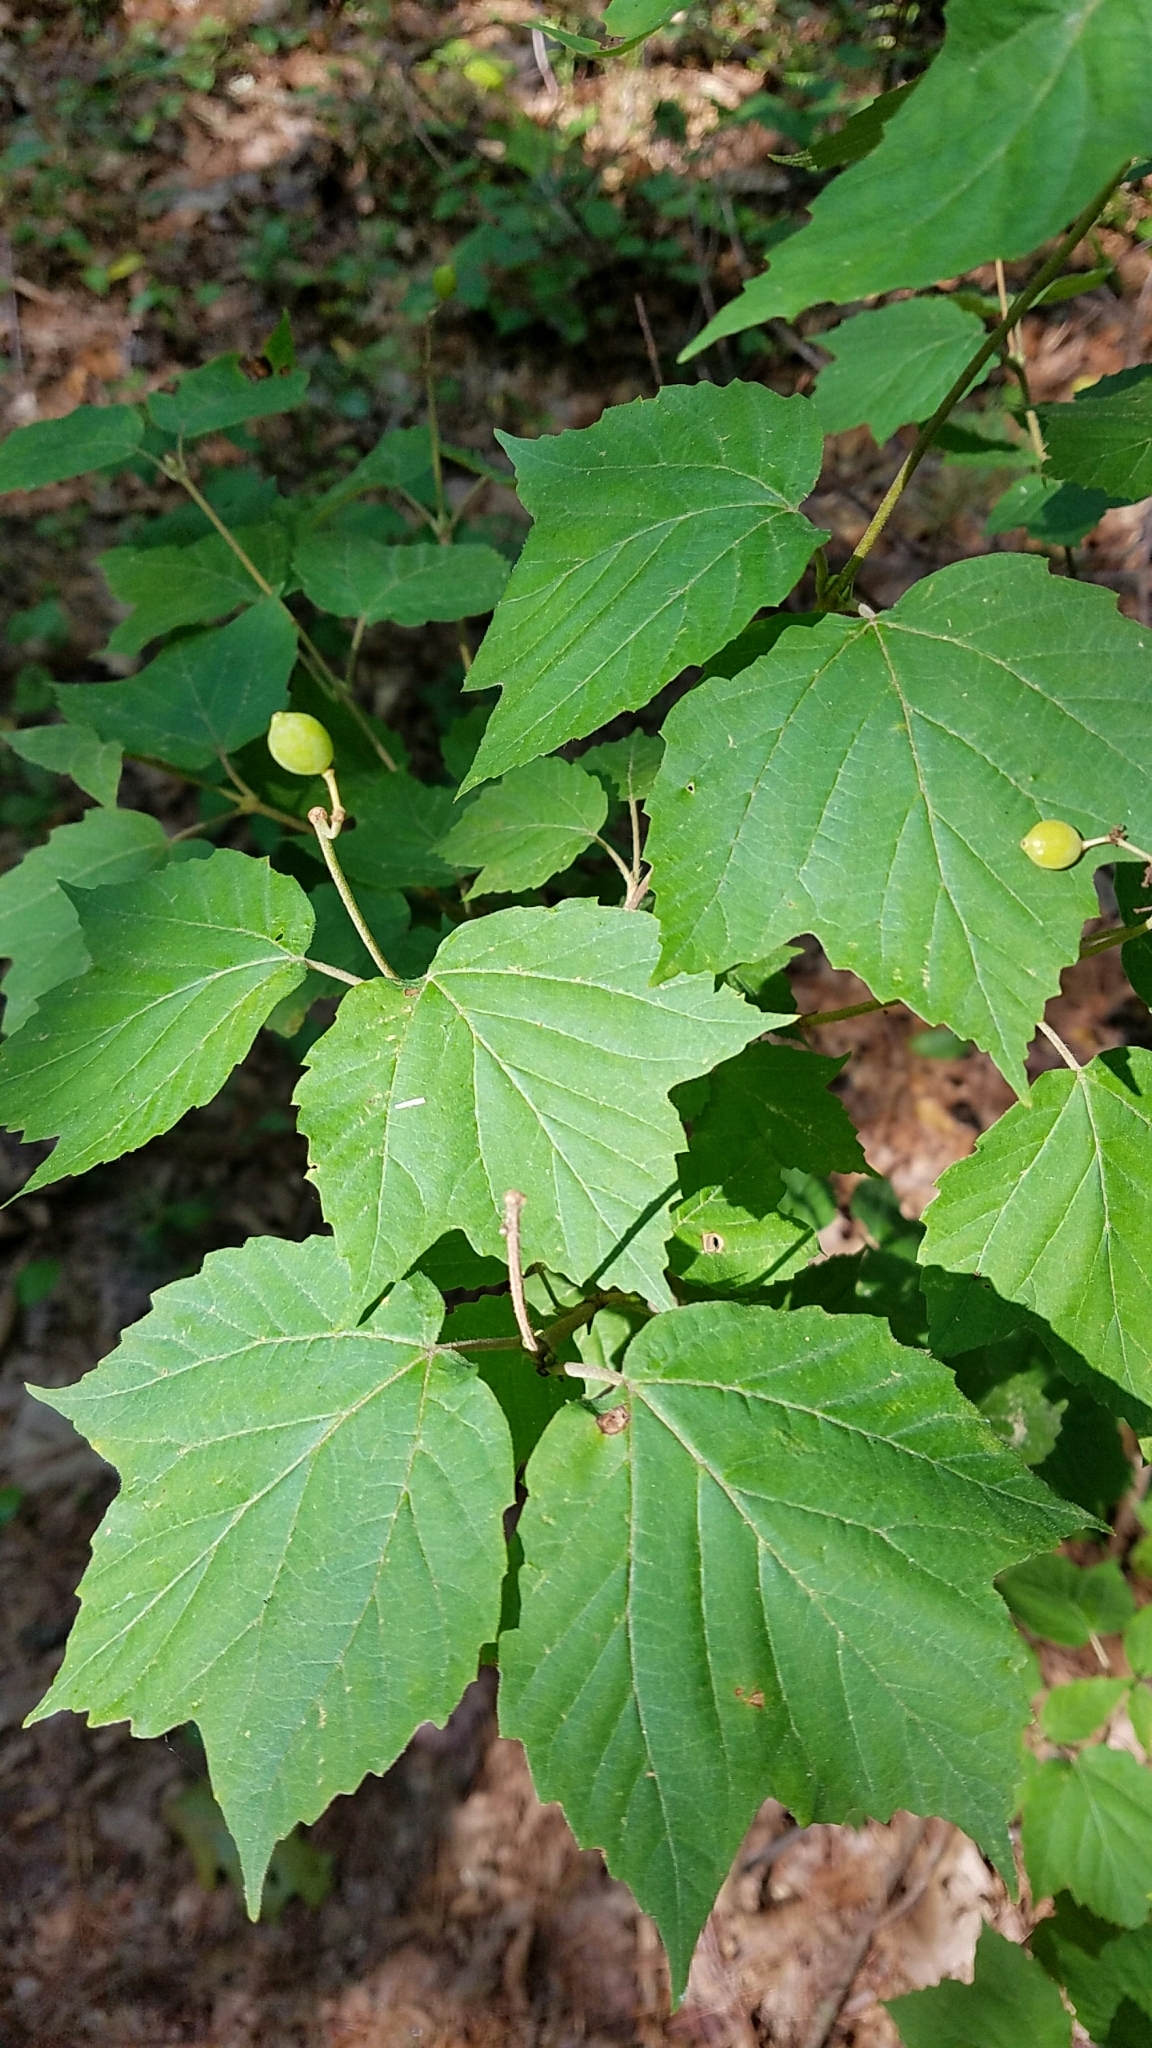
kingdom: Plantae
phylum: Tracheophyta
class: Magnoliopsida
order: Sapindales
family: Sapindaceae
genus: Acer
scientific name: Acer pensylvanicum
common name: Moosewood
